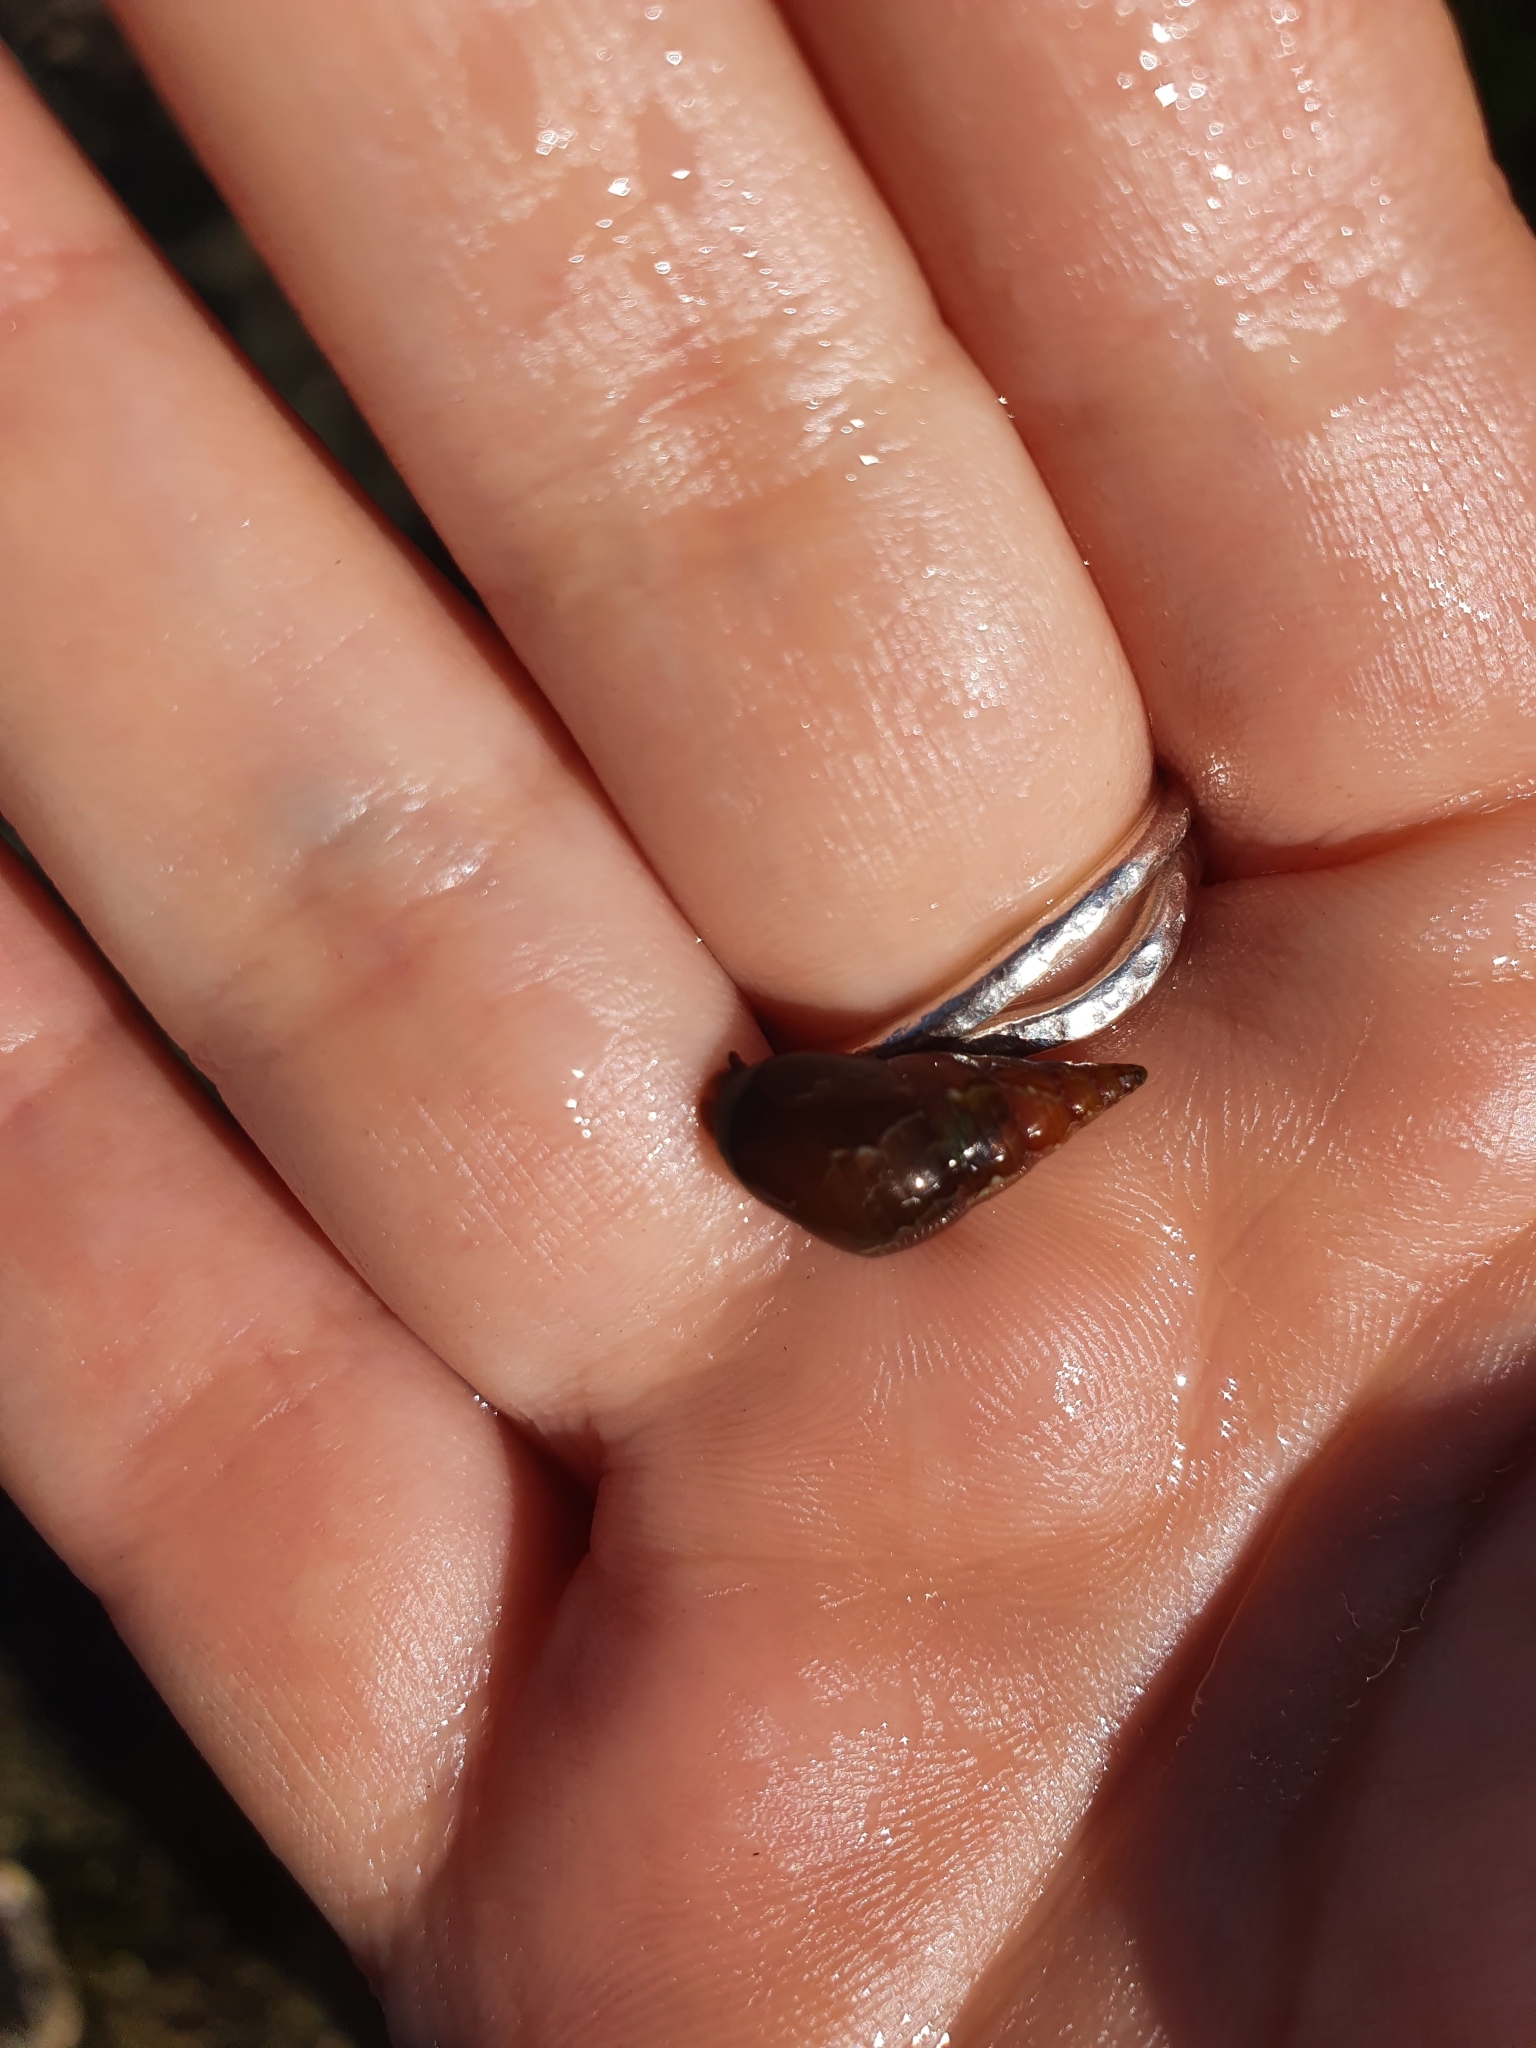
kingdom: Animalia
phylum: Mollusca
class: Gastropoda
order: Trochida
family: Trochidae
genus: Phasianotrochus
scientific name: Phasianotrochus eximius
